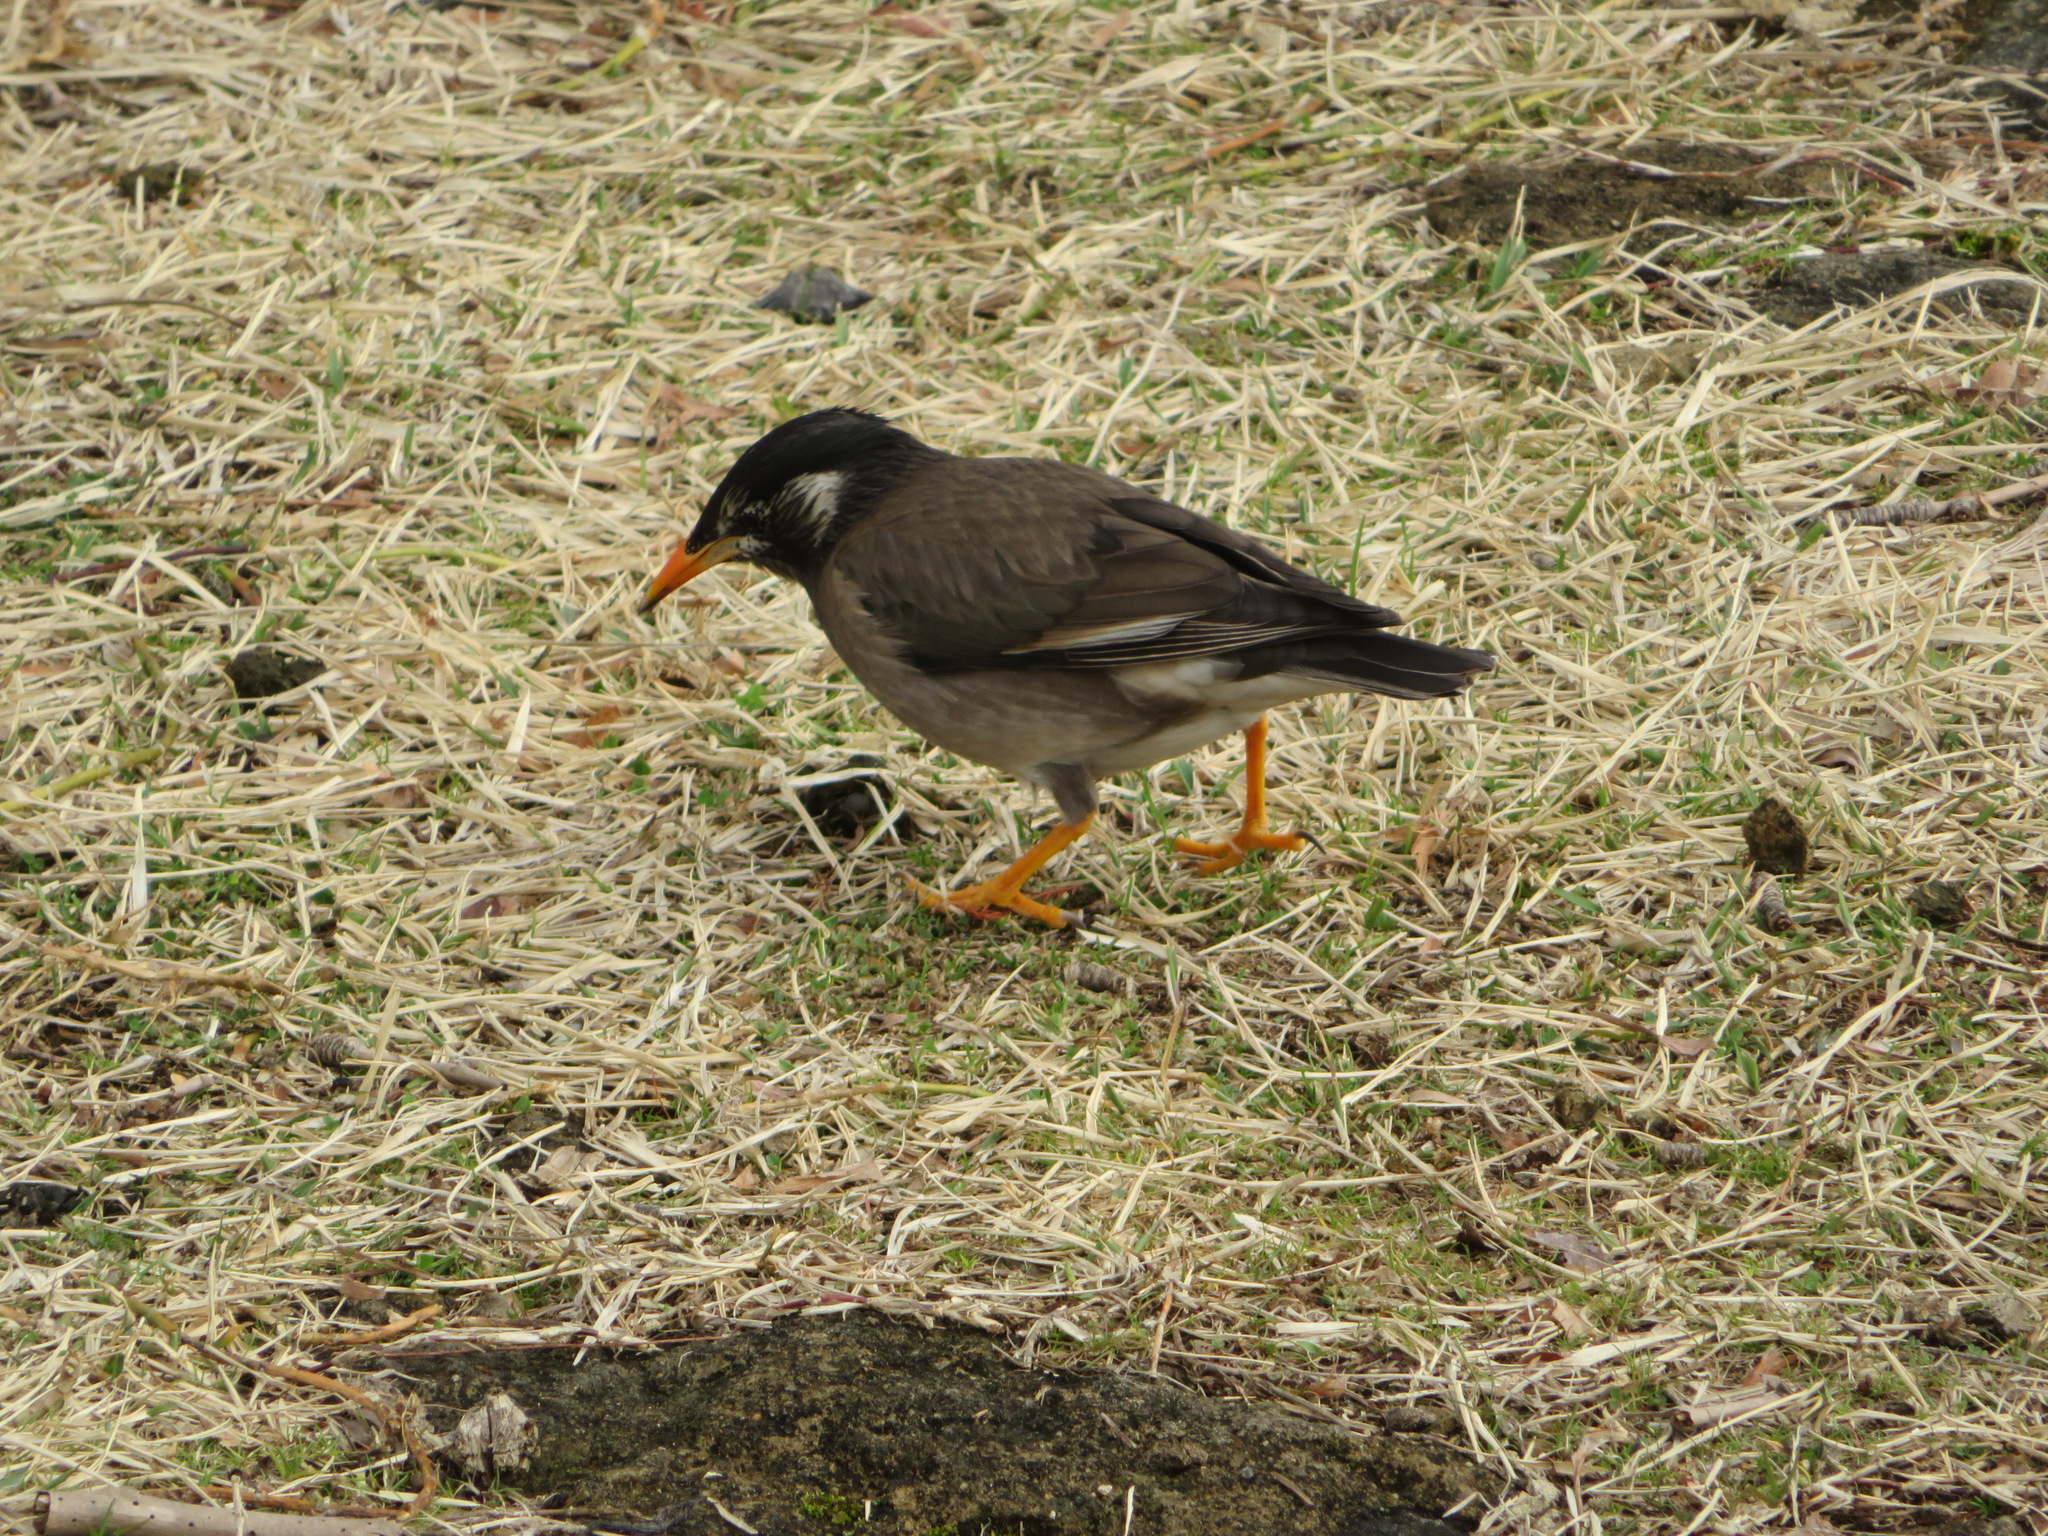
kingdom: Animalia
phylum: Chordata
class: Aves
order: Passeriformes
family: Sturnidae
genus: Spodiopsar
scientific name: Spodiopsar cineraceus
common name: White-cheeked starling
